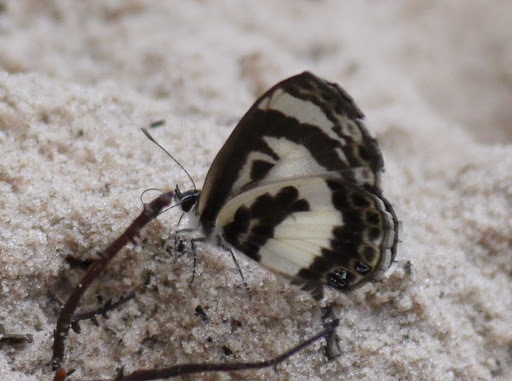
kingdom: Animalia
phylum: Arthropoda
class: Insecta
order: Lepidoptera
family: Lycaenidae
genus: Azanus
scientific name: Azanus isis
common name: White-banded babul blue
